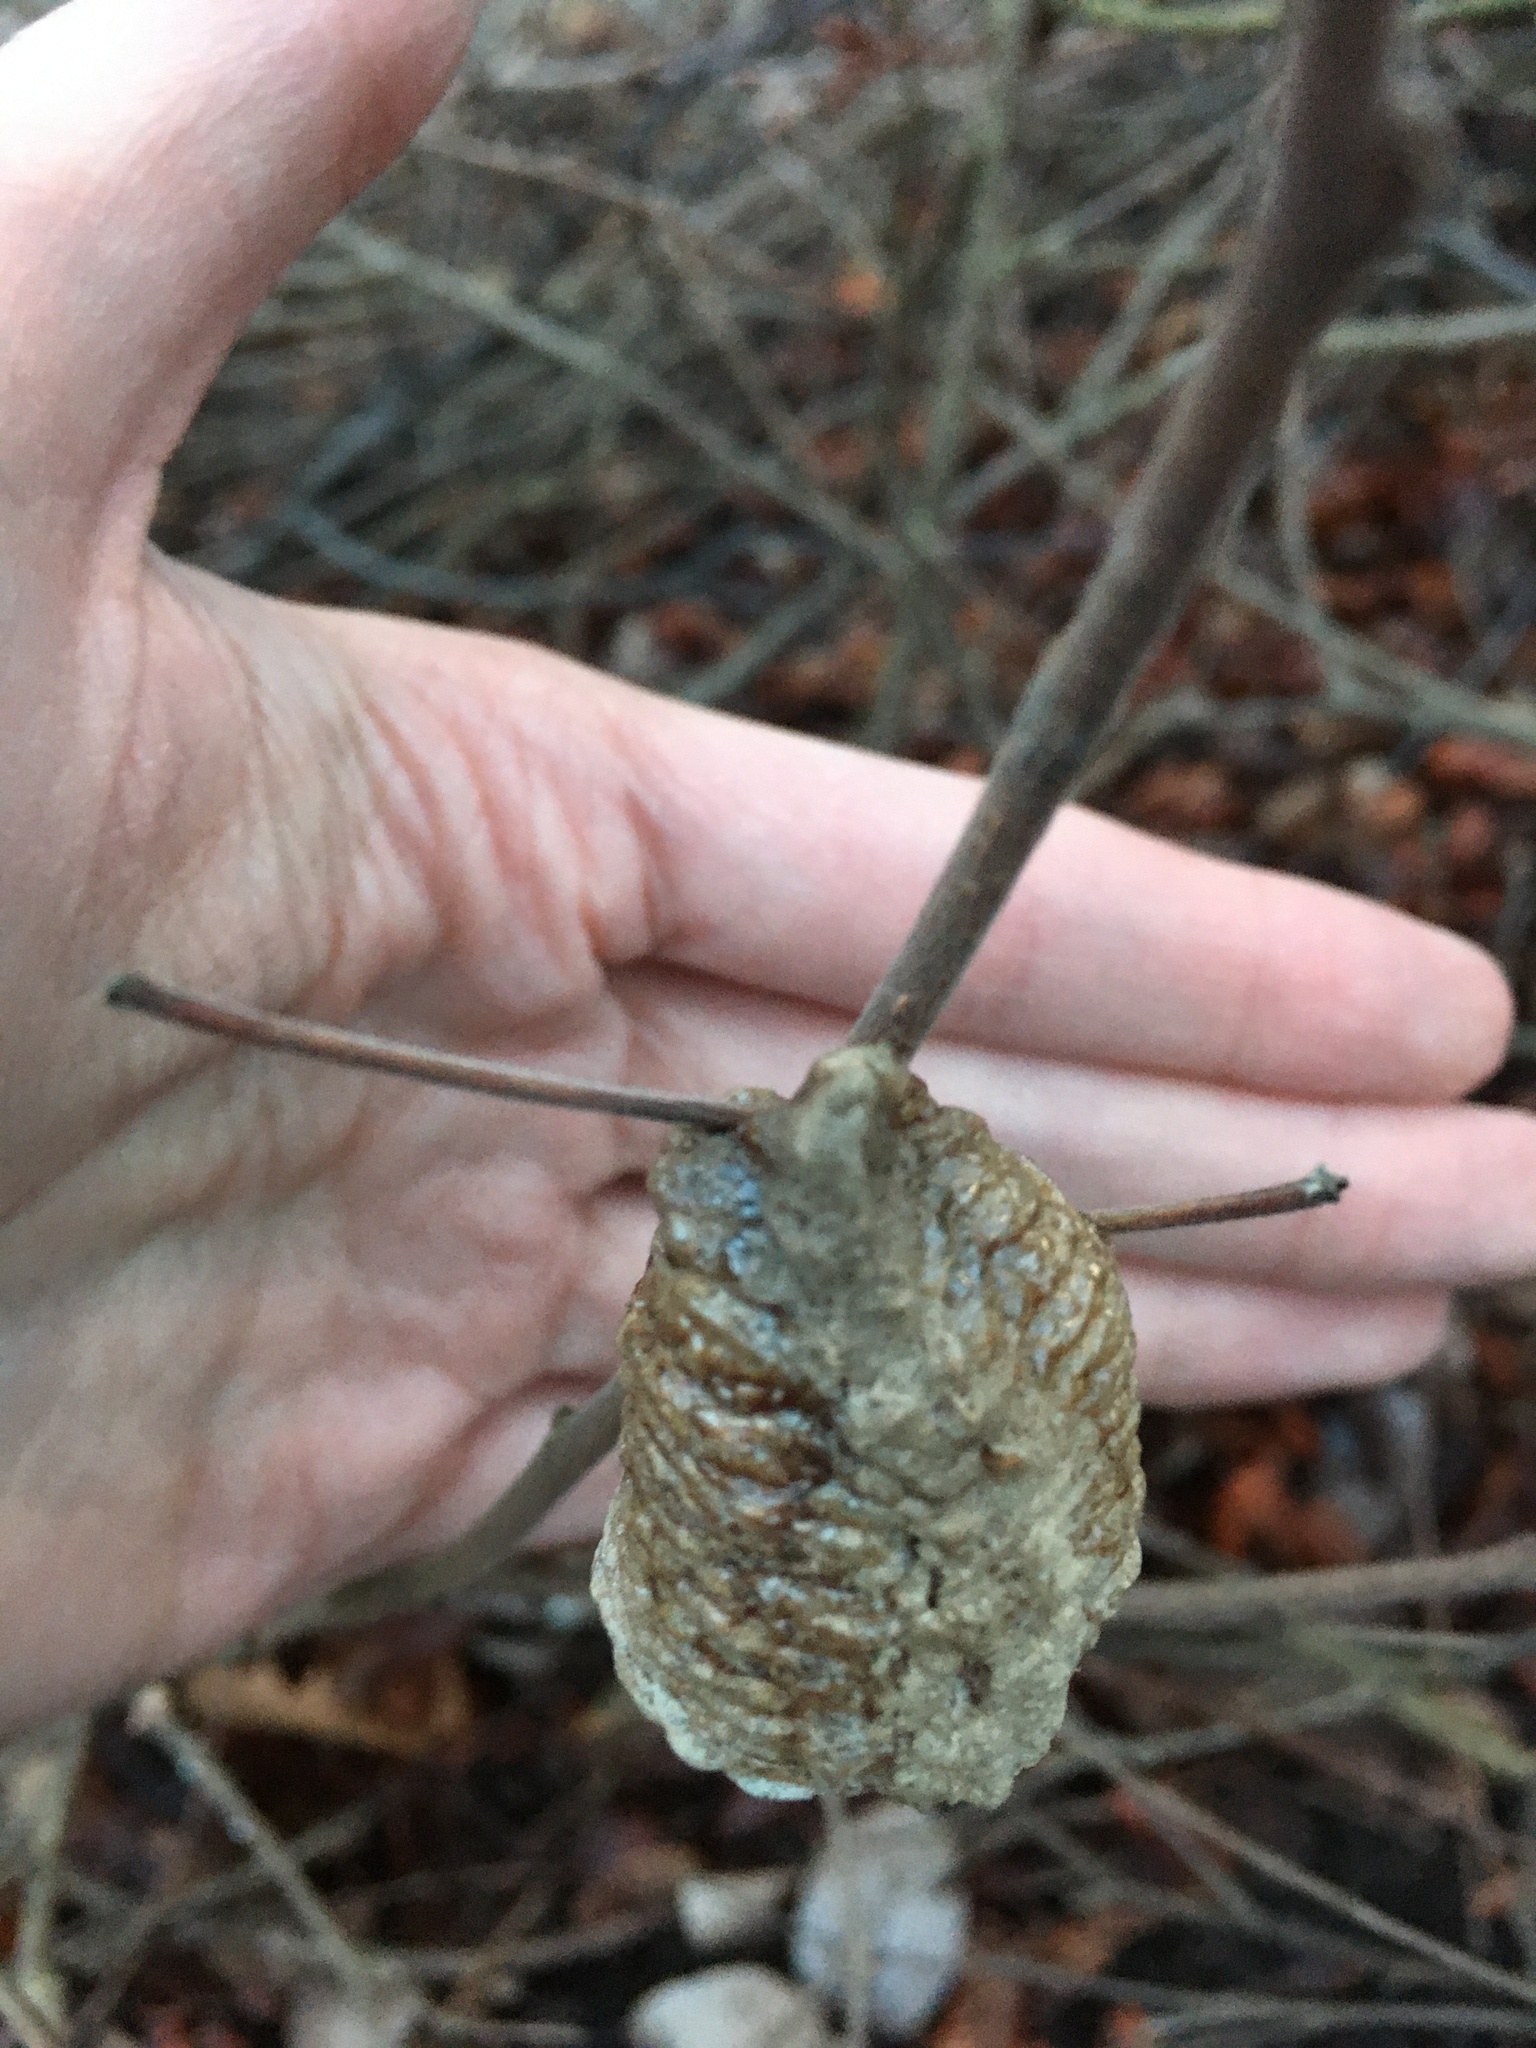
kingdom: Animalia
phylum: Arthropoda
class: Insecta
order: Mantodea
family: Mantidae
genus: Tenodera
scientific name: Tenodera sinensis
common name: Chinese mantis
